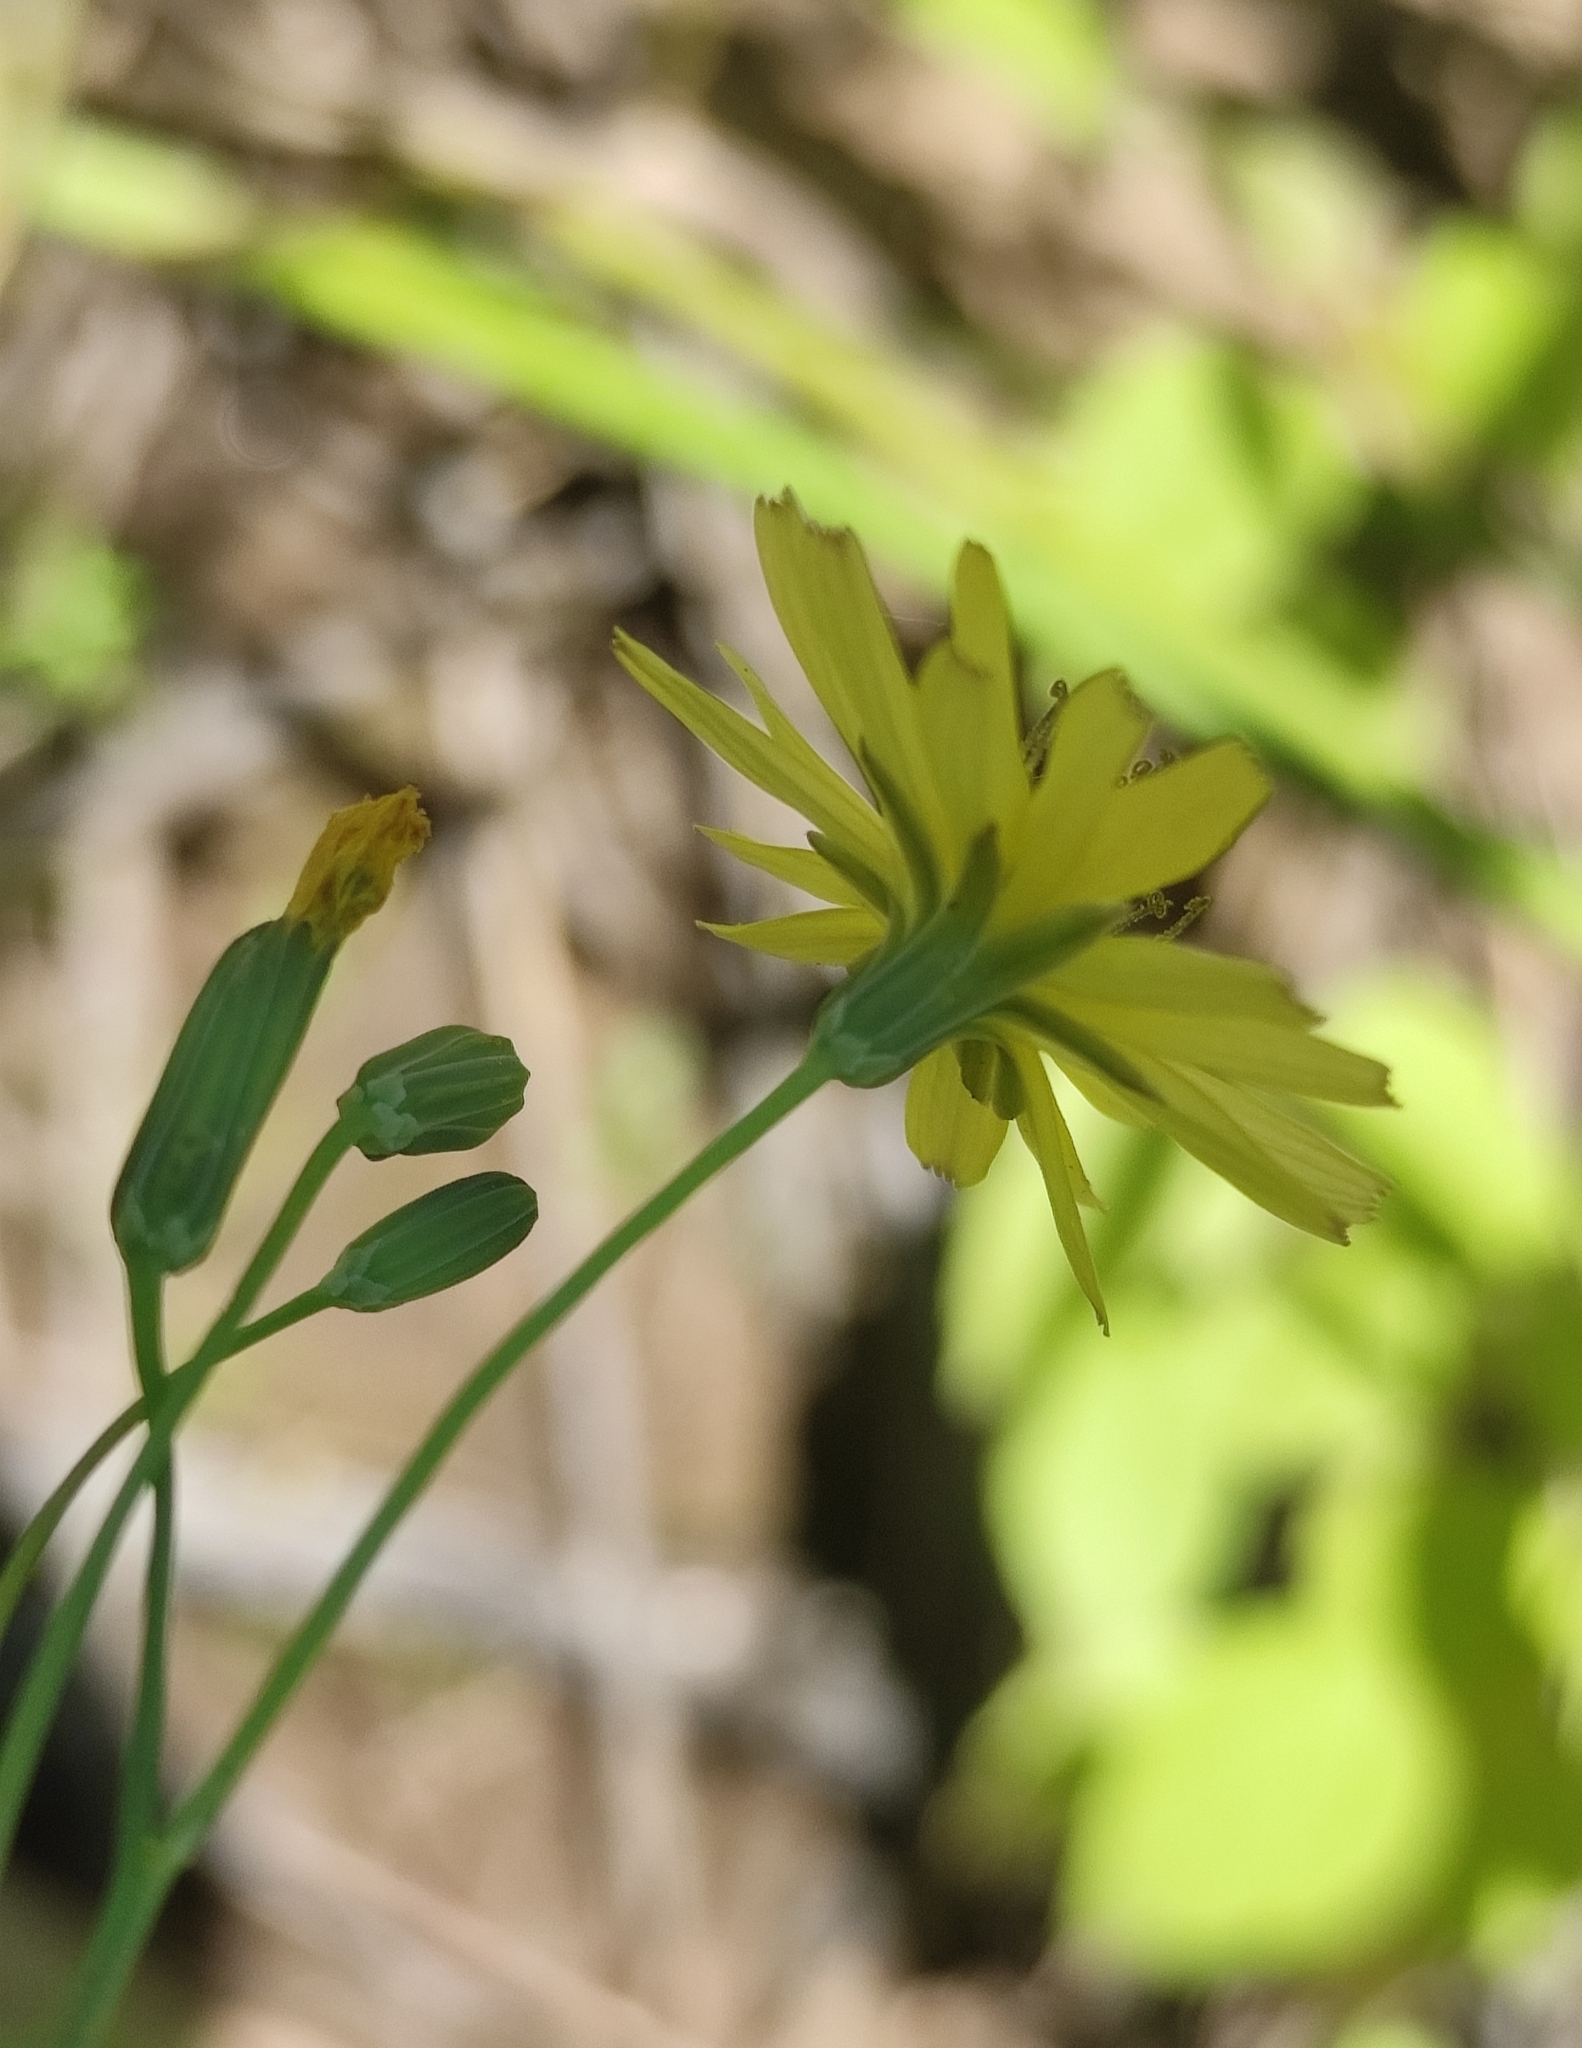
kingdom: Plantae
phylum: Tracheophyta
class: Magnoliopsida
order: Asterales
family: Asteraceae
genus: Ixeris
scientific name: Ixeris chinensis
